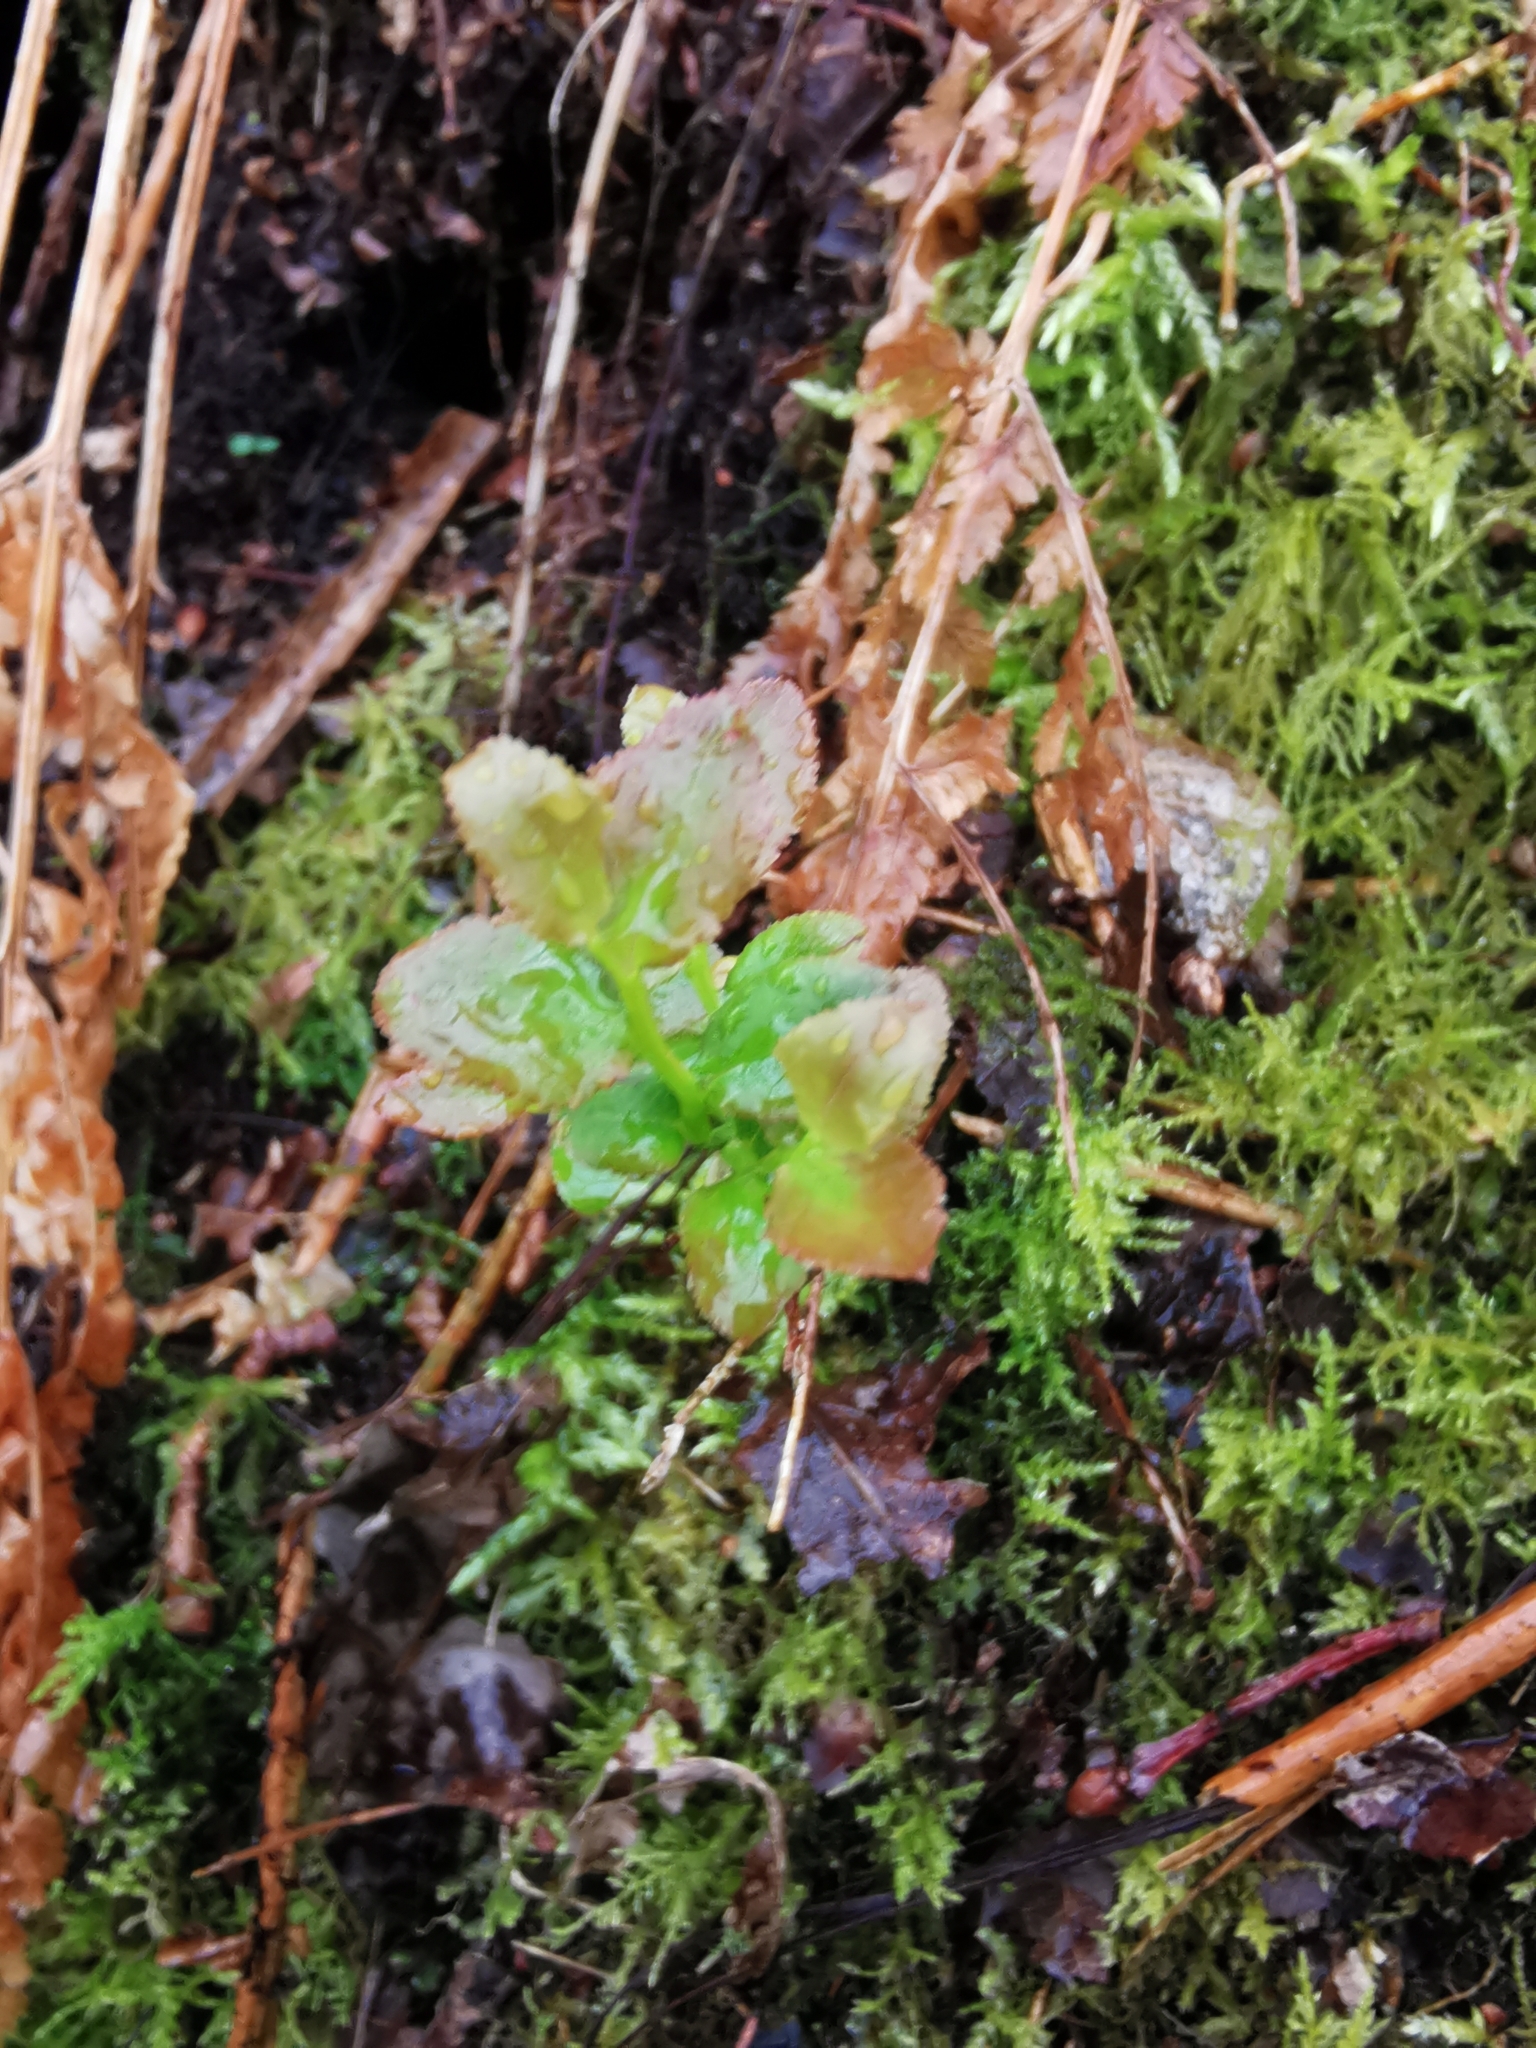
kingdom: Plantae
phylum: Tracheophyta
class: Magnoliopsida
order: Ericales
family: Ericaceae
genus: Vaccinium
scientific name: Vaccinium myrtillus
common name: Bilberry
